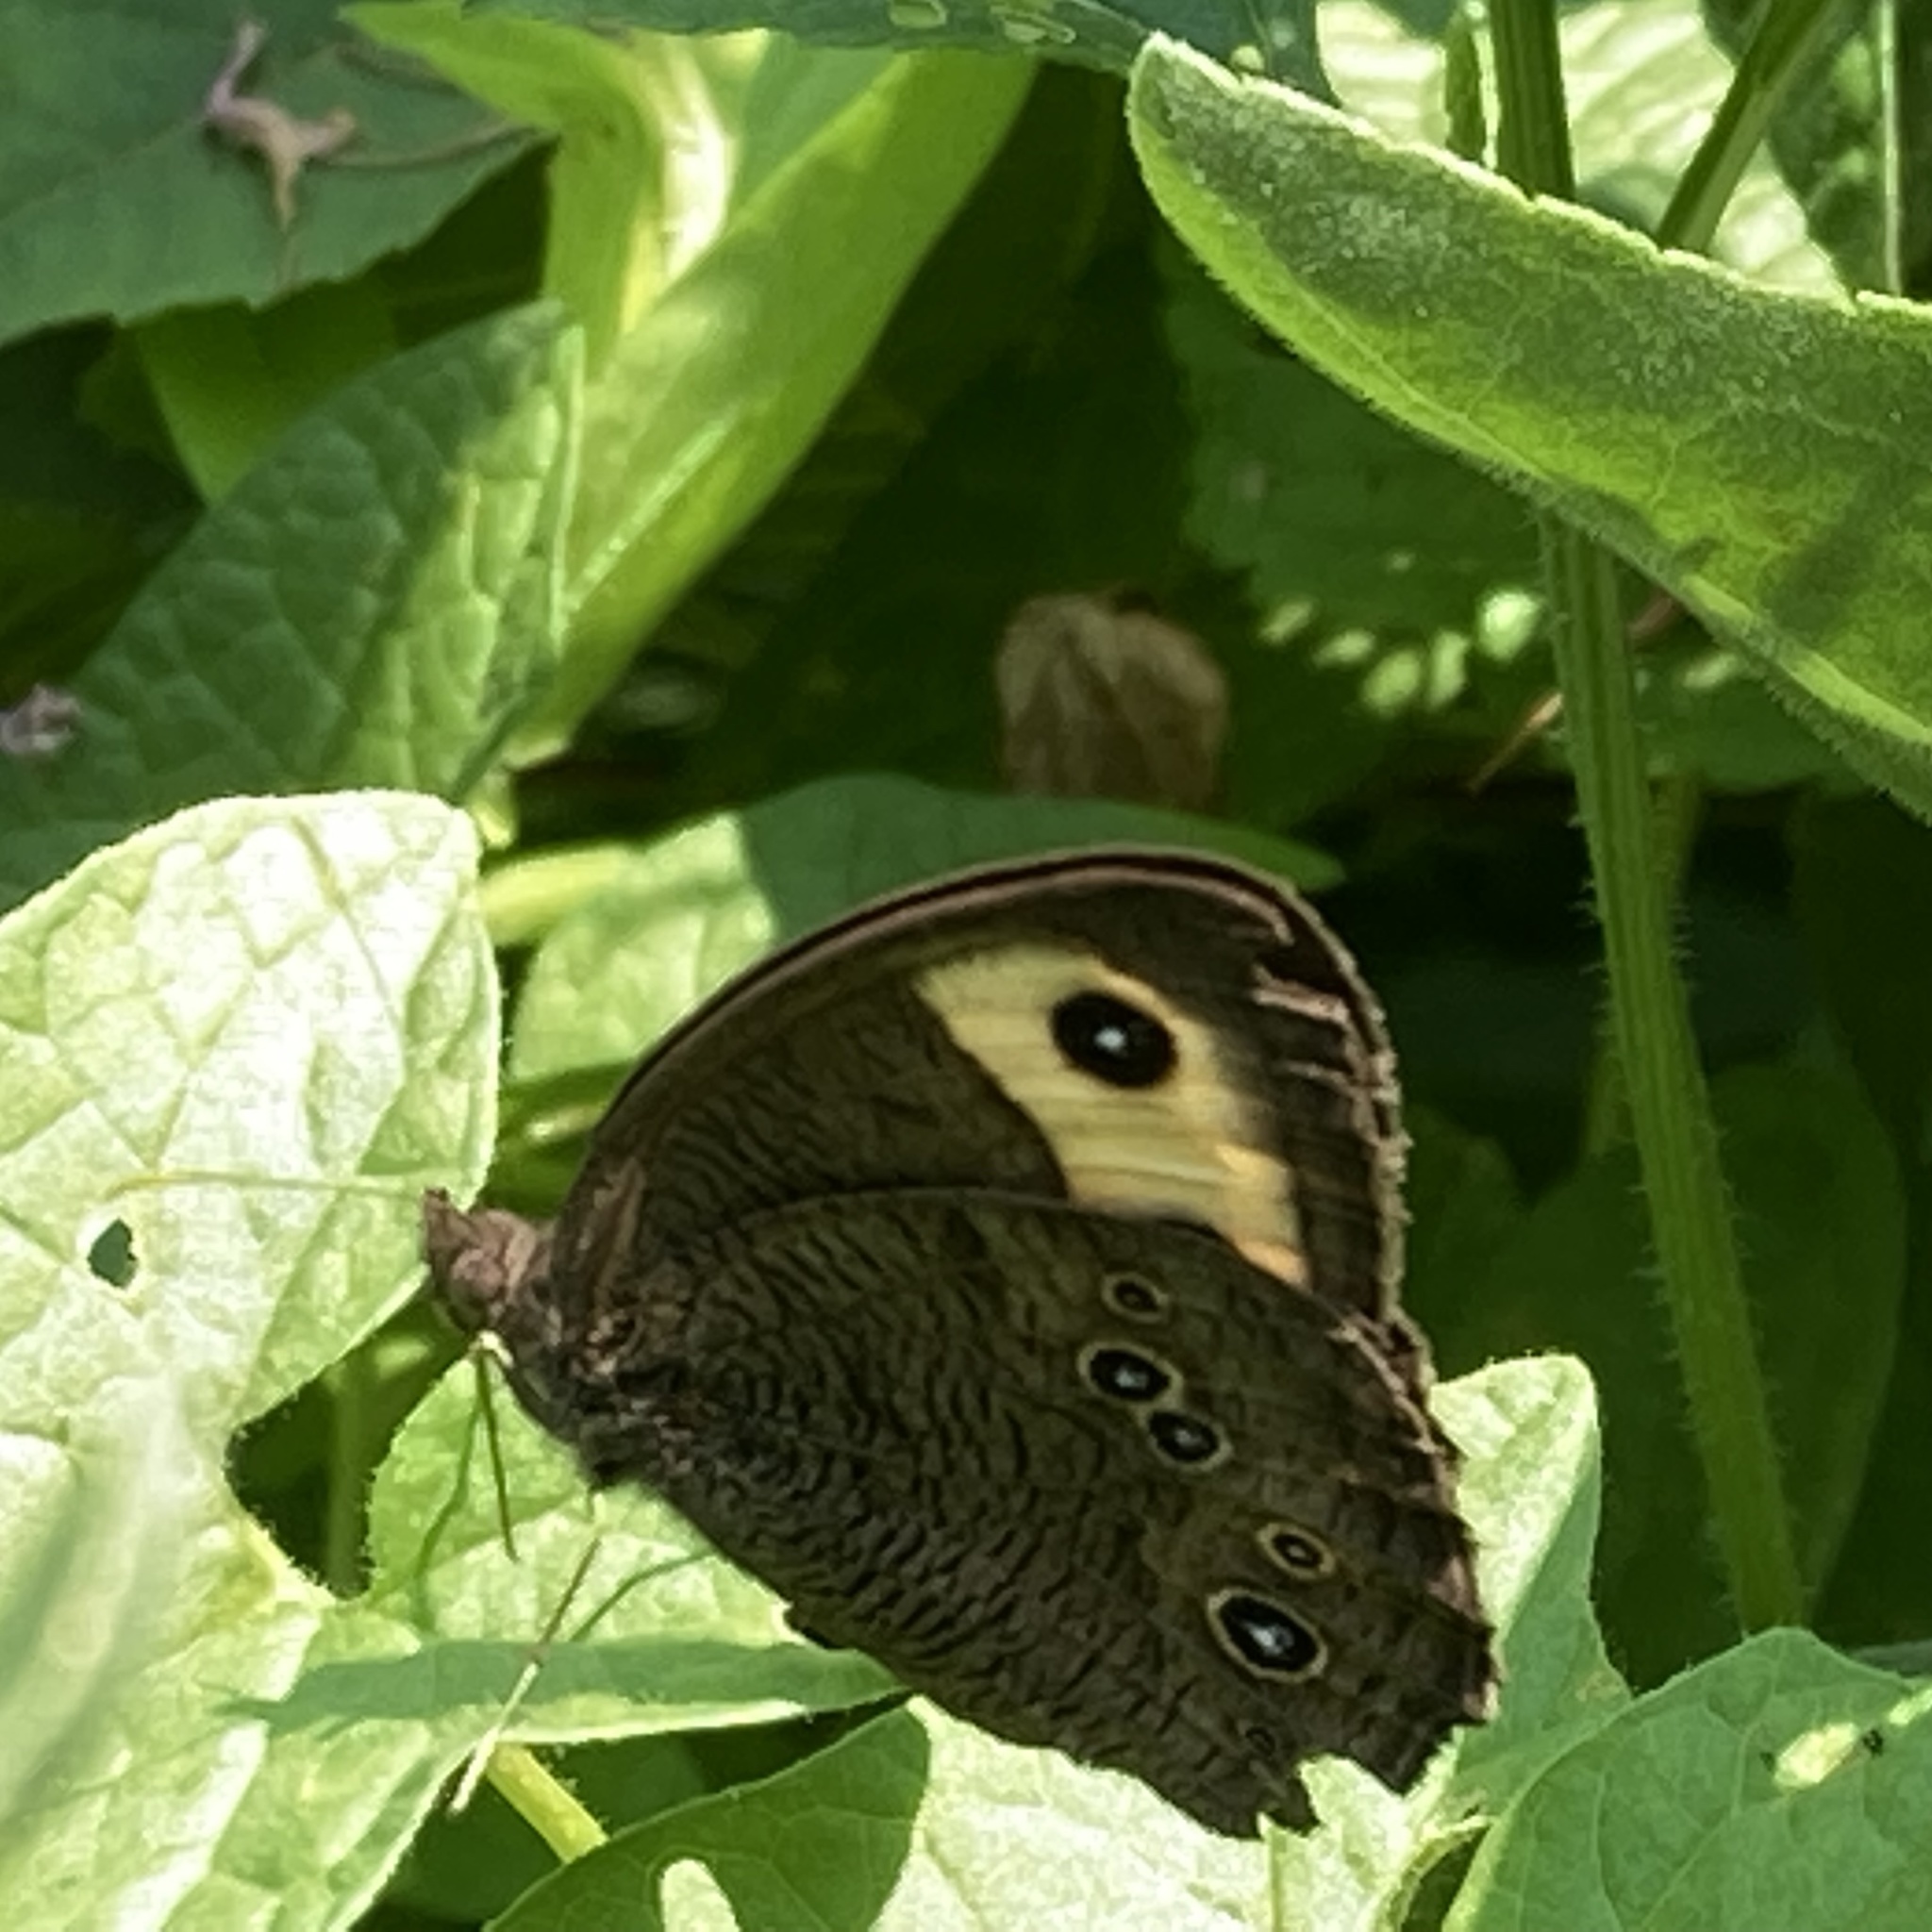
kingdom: Animalia
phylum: Arthropoda
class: Insecta
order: Lepidoptera
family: Nymphalidae
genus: Cercyonis
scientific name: Cercyonis pegala
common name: Common wood-nymph
